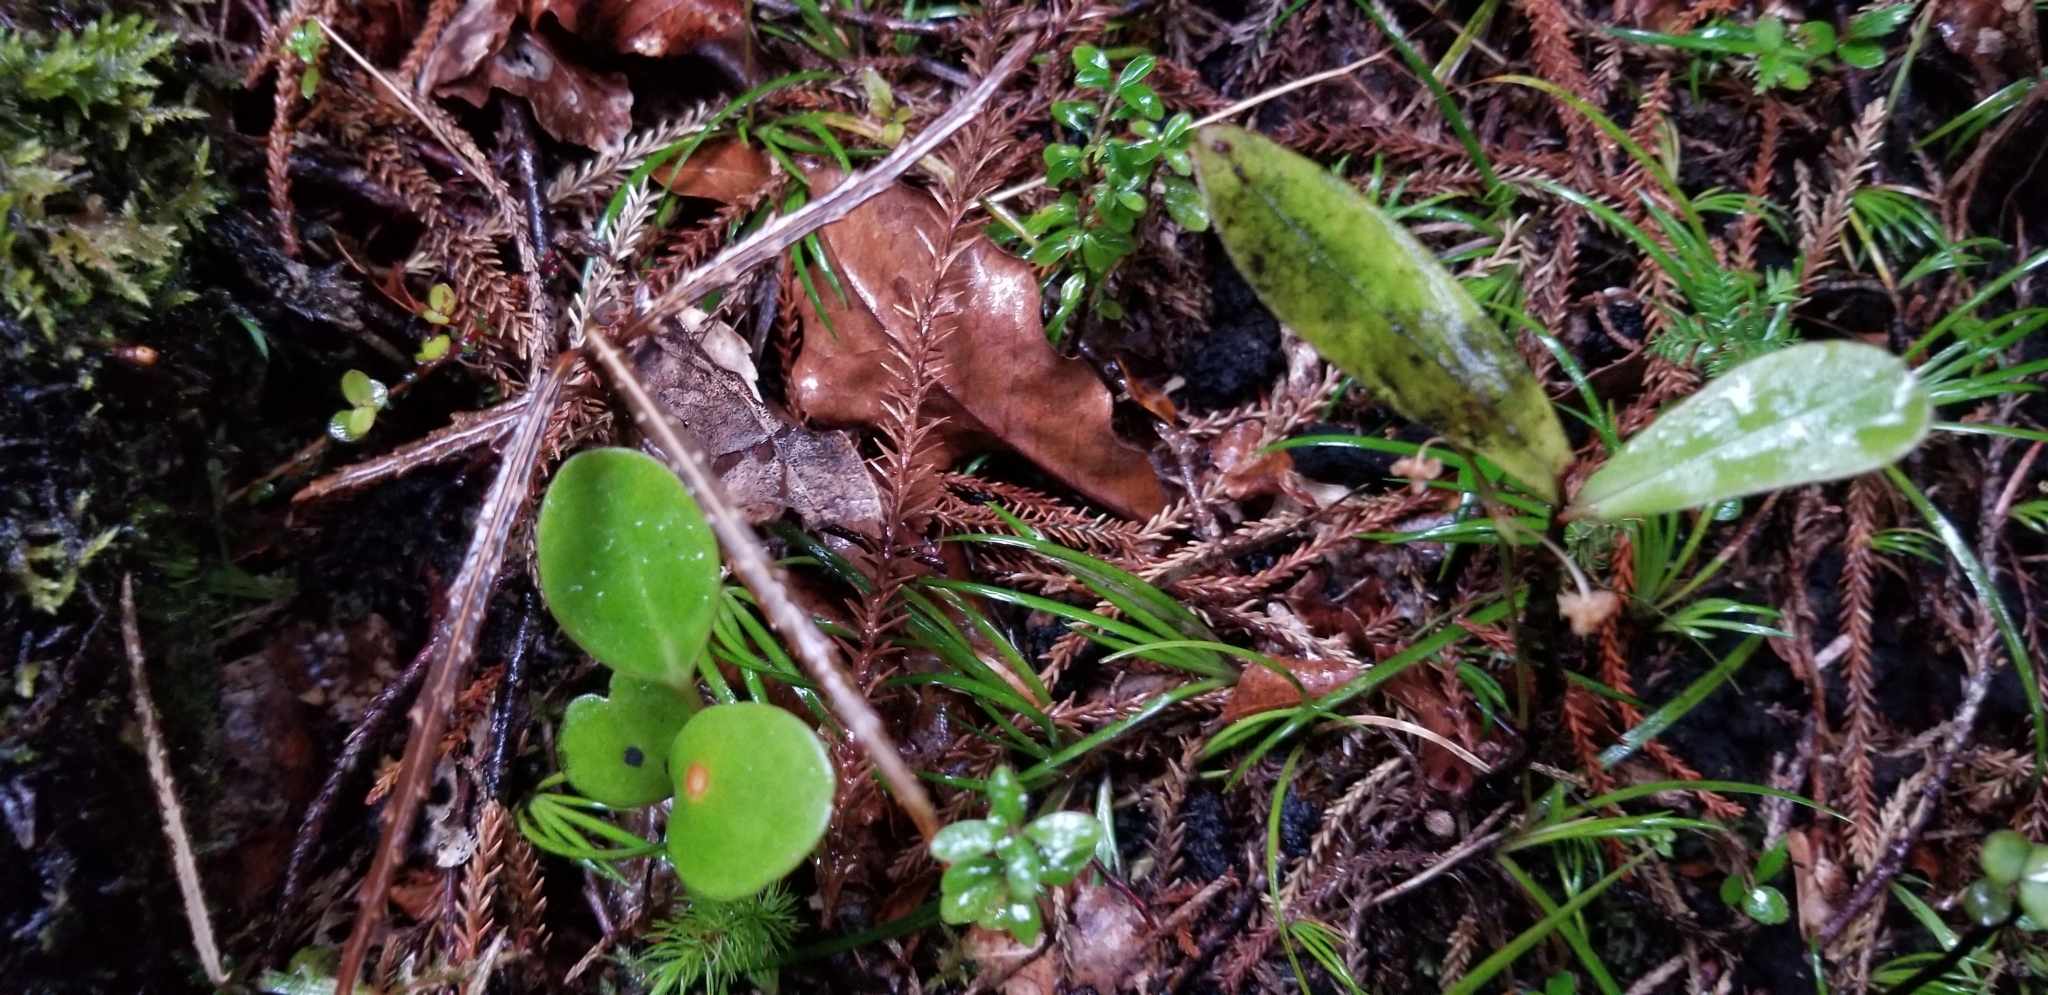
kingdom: Plantae
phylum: Tracheophyta
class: Magnoliopsida
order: Apiales
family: Griseliniaceae
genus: Griselinia
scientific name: Griselinia littoralis
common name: New zealand broadleaf
